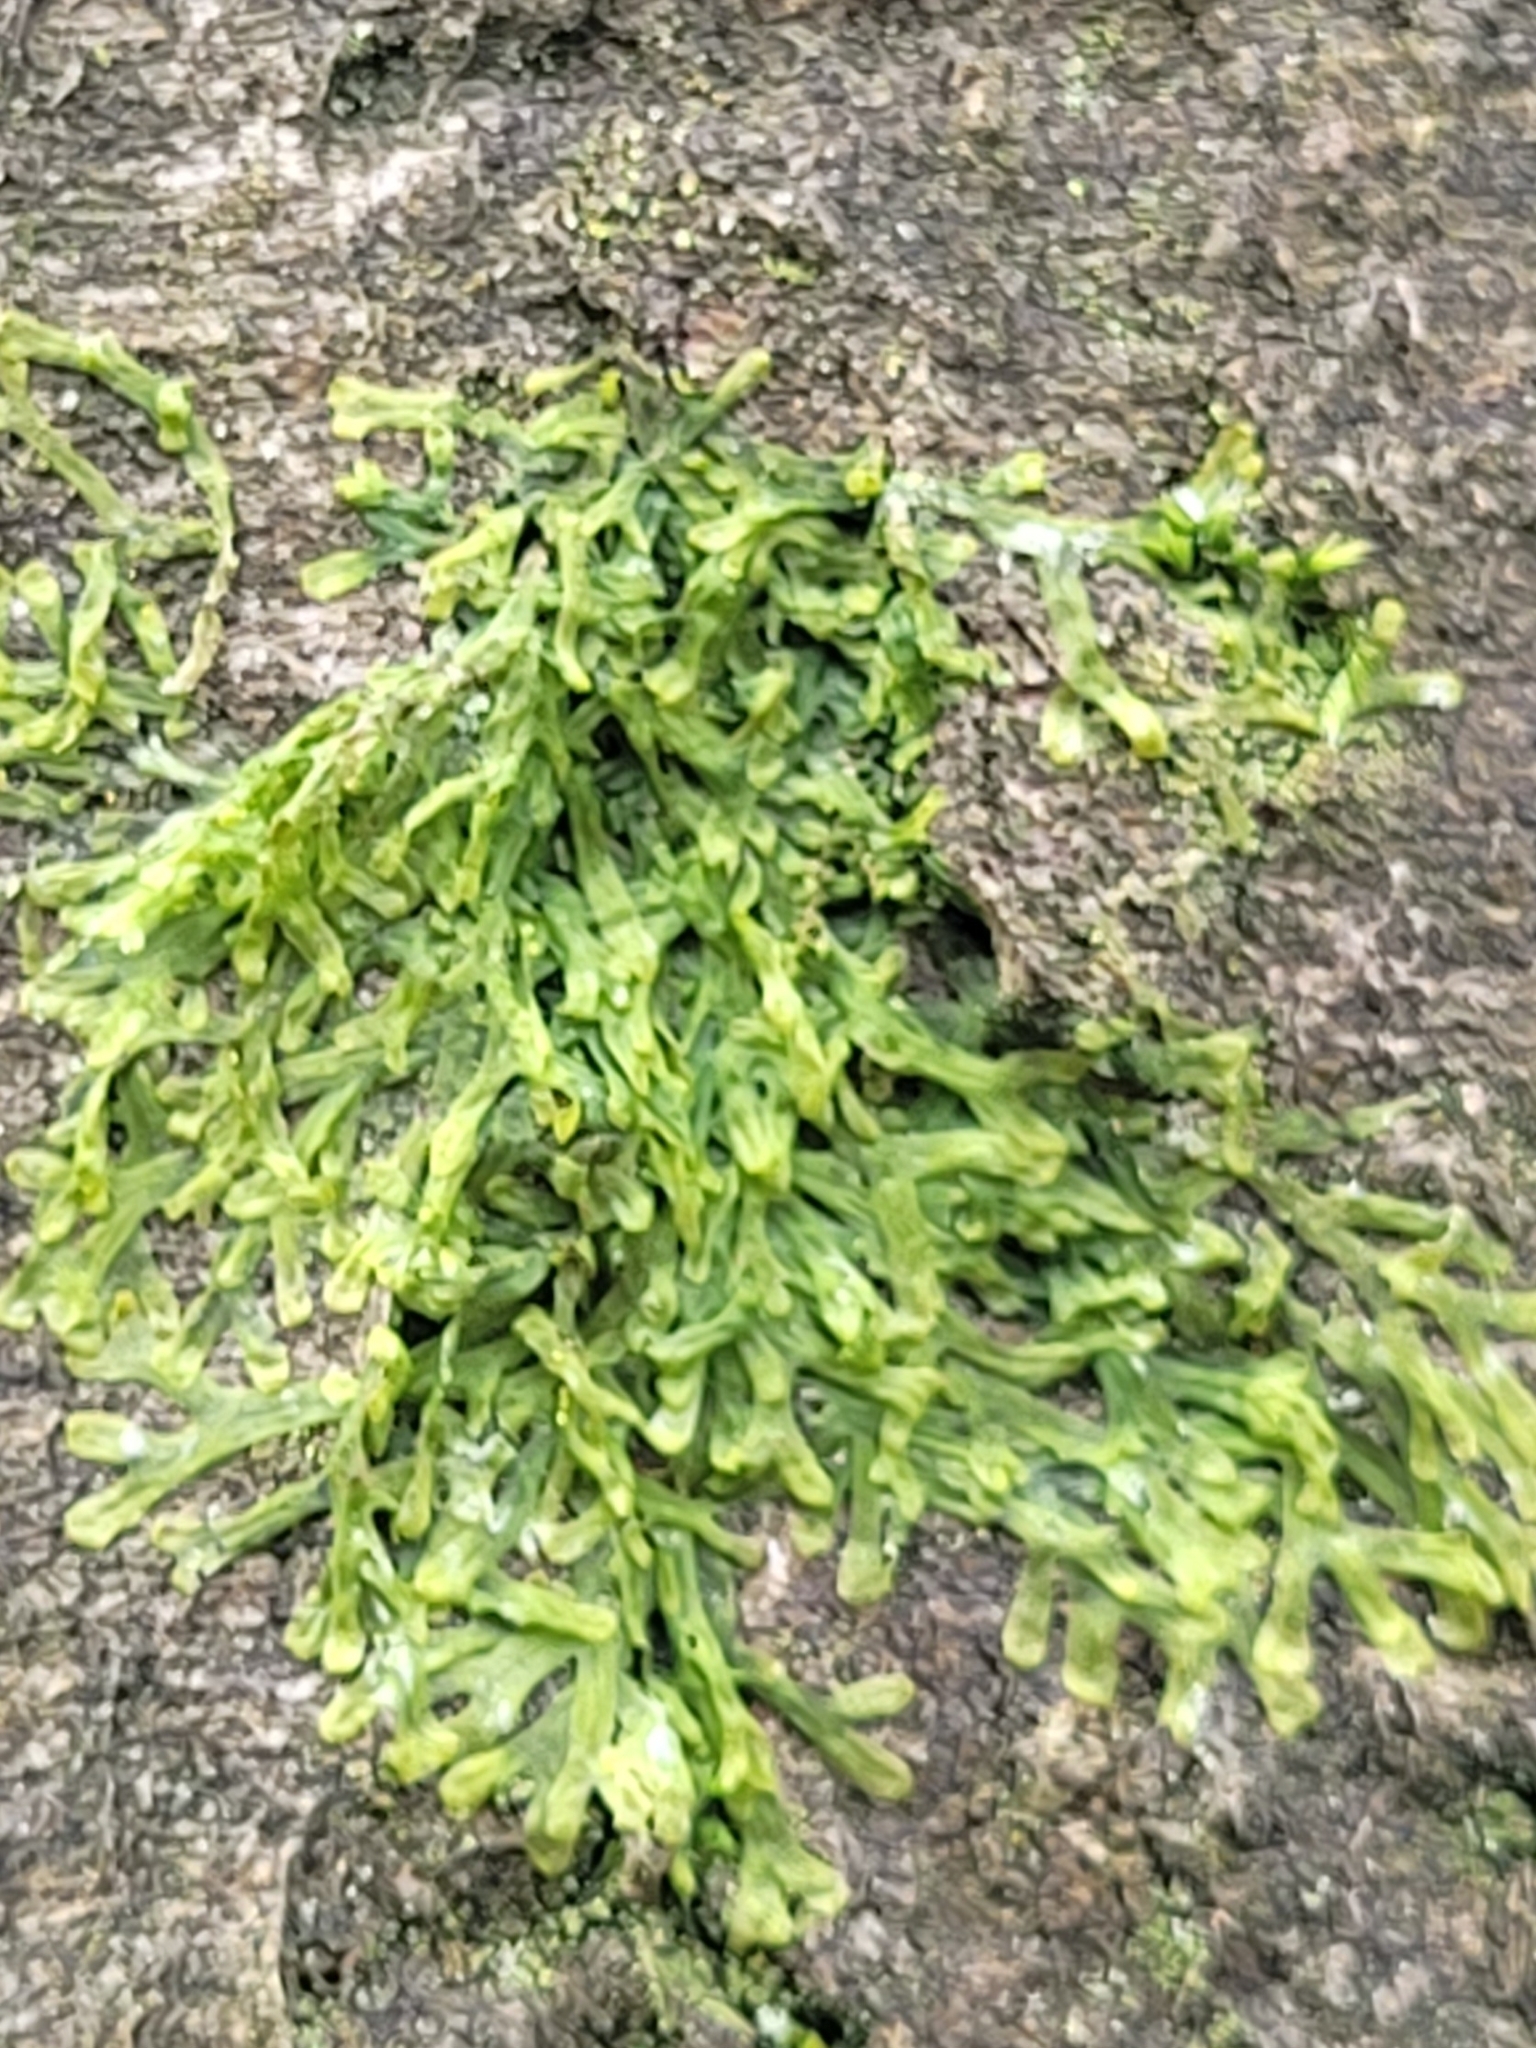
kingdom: Plantae
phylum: Marchantiophyta
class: Jungermanniopsida
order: Metzgeriales
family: Metzgeriaceae
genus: Metzgeria
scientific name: Metzgeria furcata
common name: Forked veilwort
